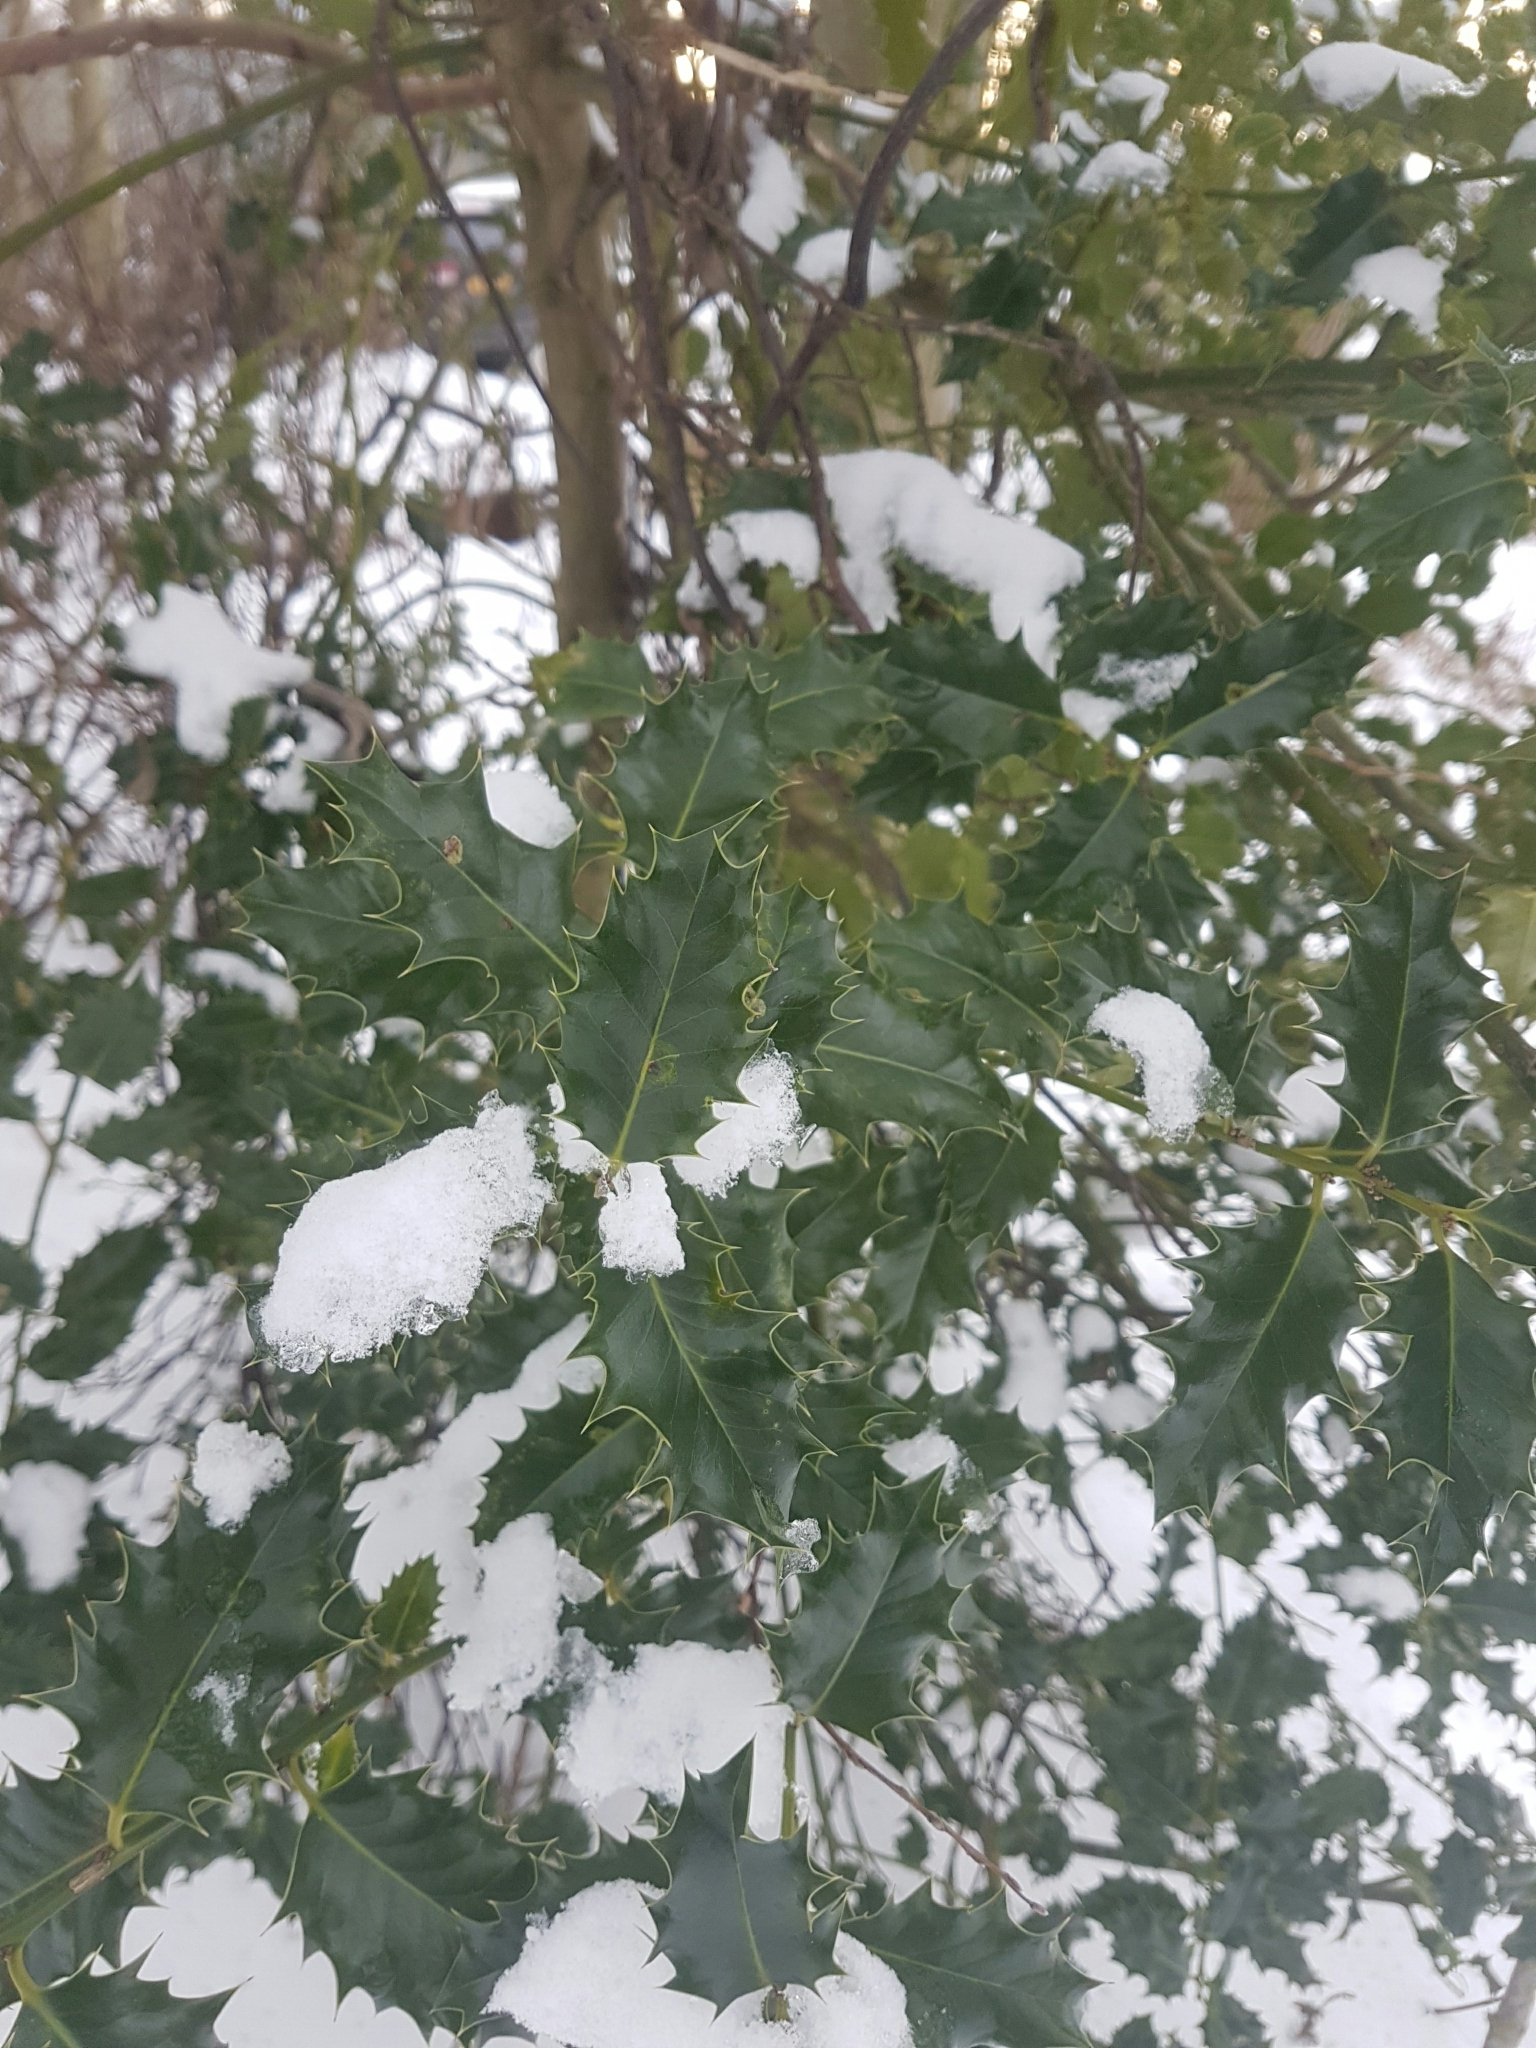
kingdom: Plantae
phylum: Tracheophyta
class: Magnoliopsida
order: Aquifoliales
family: Aquifoliaceae
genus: Ilex
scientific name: Ilex aquifolium
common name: English holly
